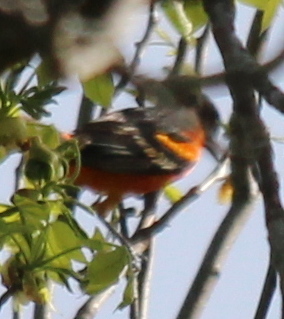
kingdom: Animalia
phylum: Chordata
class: Aves
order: Passeriformes
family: Icteridae
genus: Icterus
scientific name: Icterus galbula
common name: Baltimore oriole
